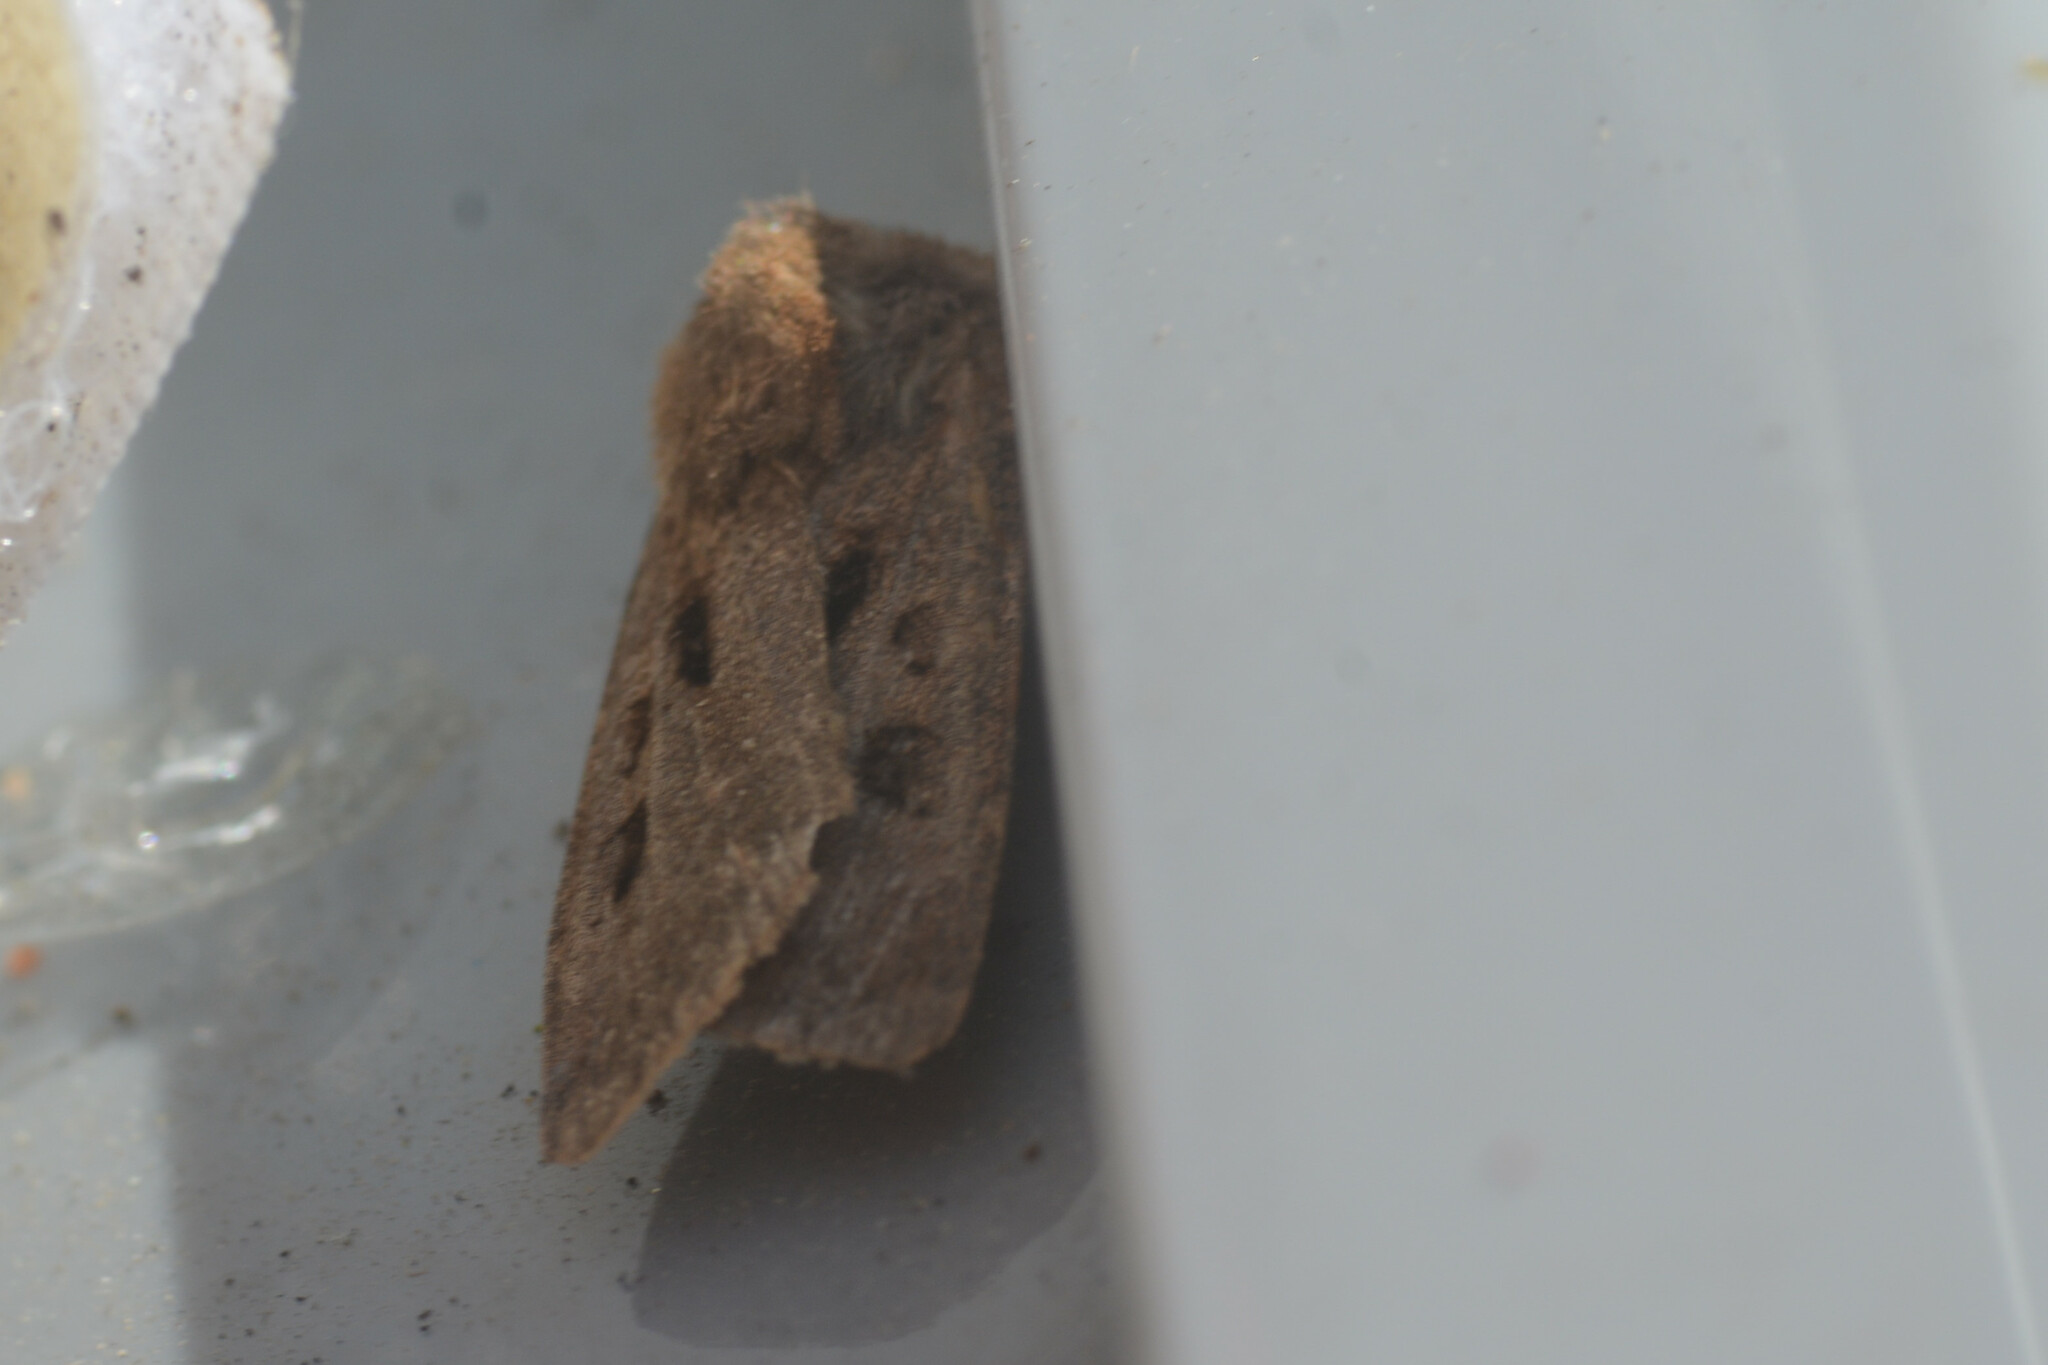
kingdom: Animalia
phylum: Arthropoda
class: Insecta
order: Lepidoptera
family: Noctuidae
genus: Agrotis
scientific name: Agrotis exclamationis
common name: Heart and dart
